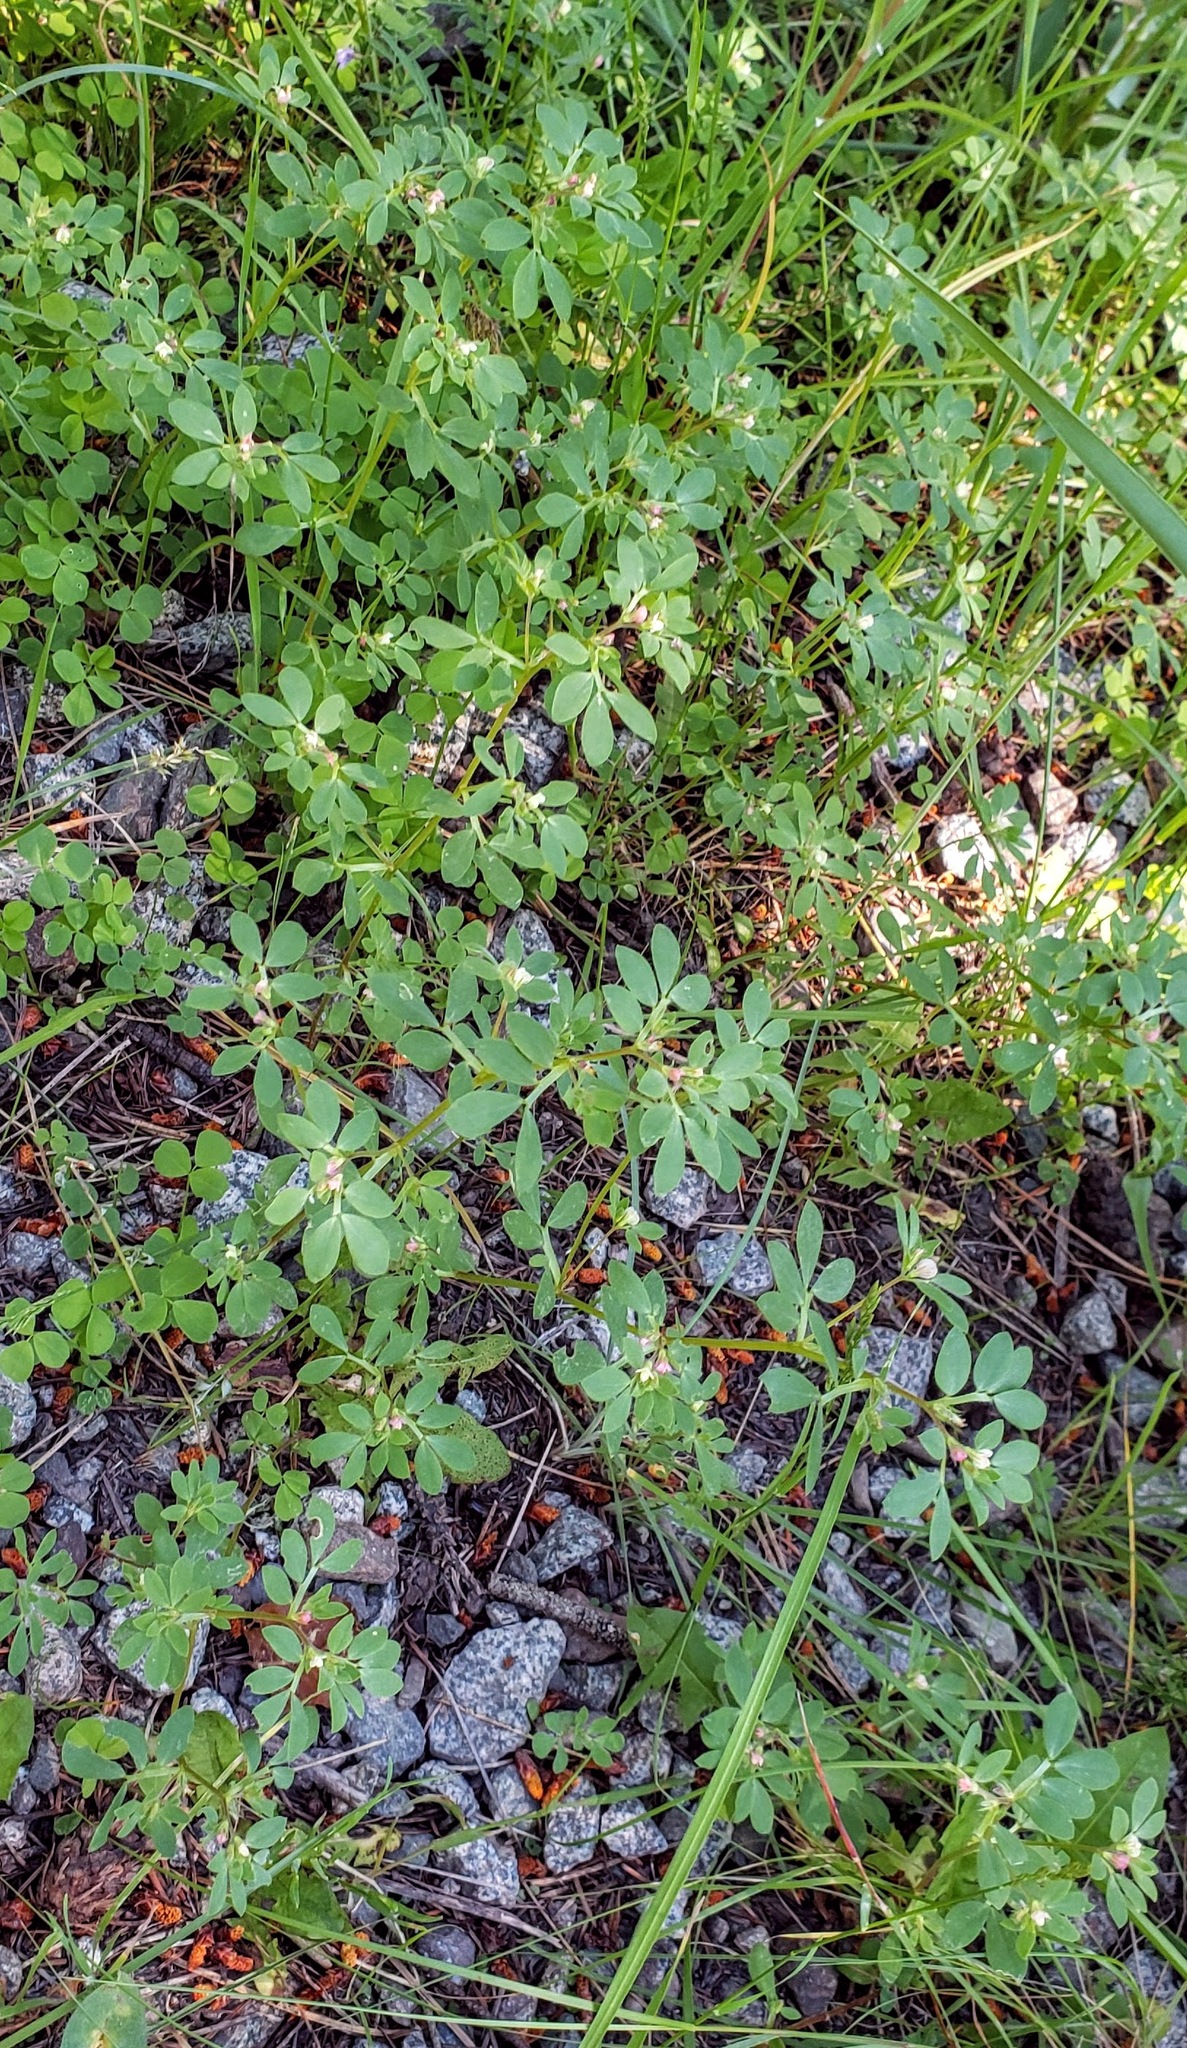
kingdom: Plantae
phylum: Tracheophyta
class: Magnoliopsida
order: Fabales
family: Fabaceae
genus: Acmispon
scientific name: Acmispon denticulatus
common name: Meadow bird's-foot trefoil
